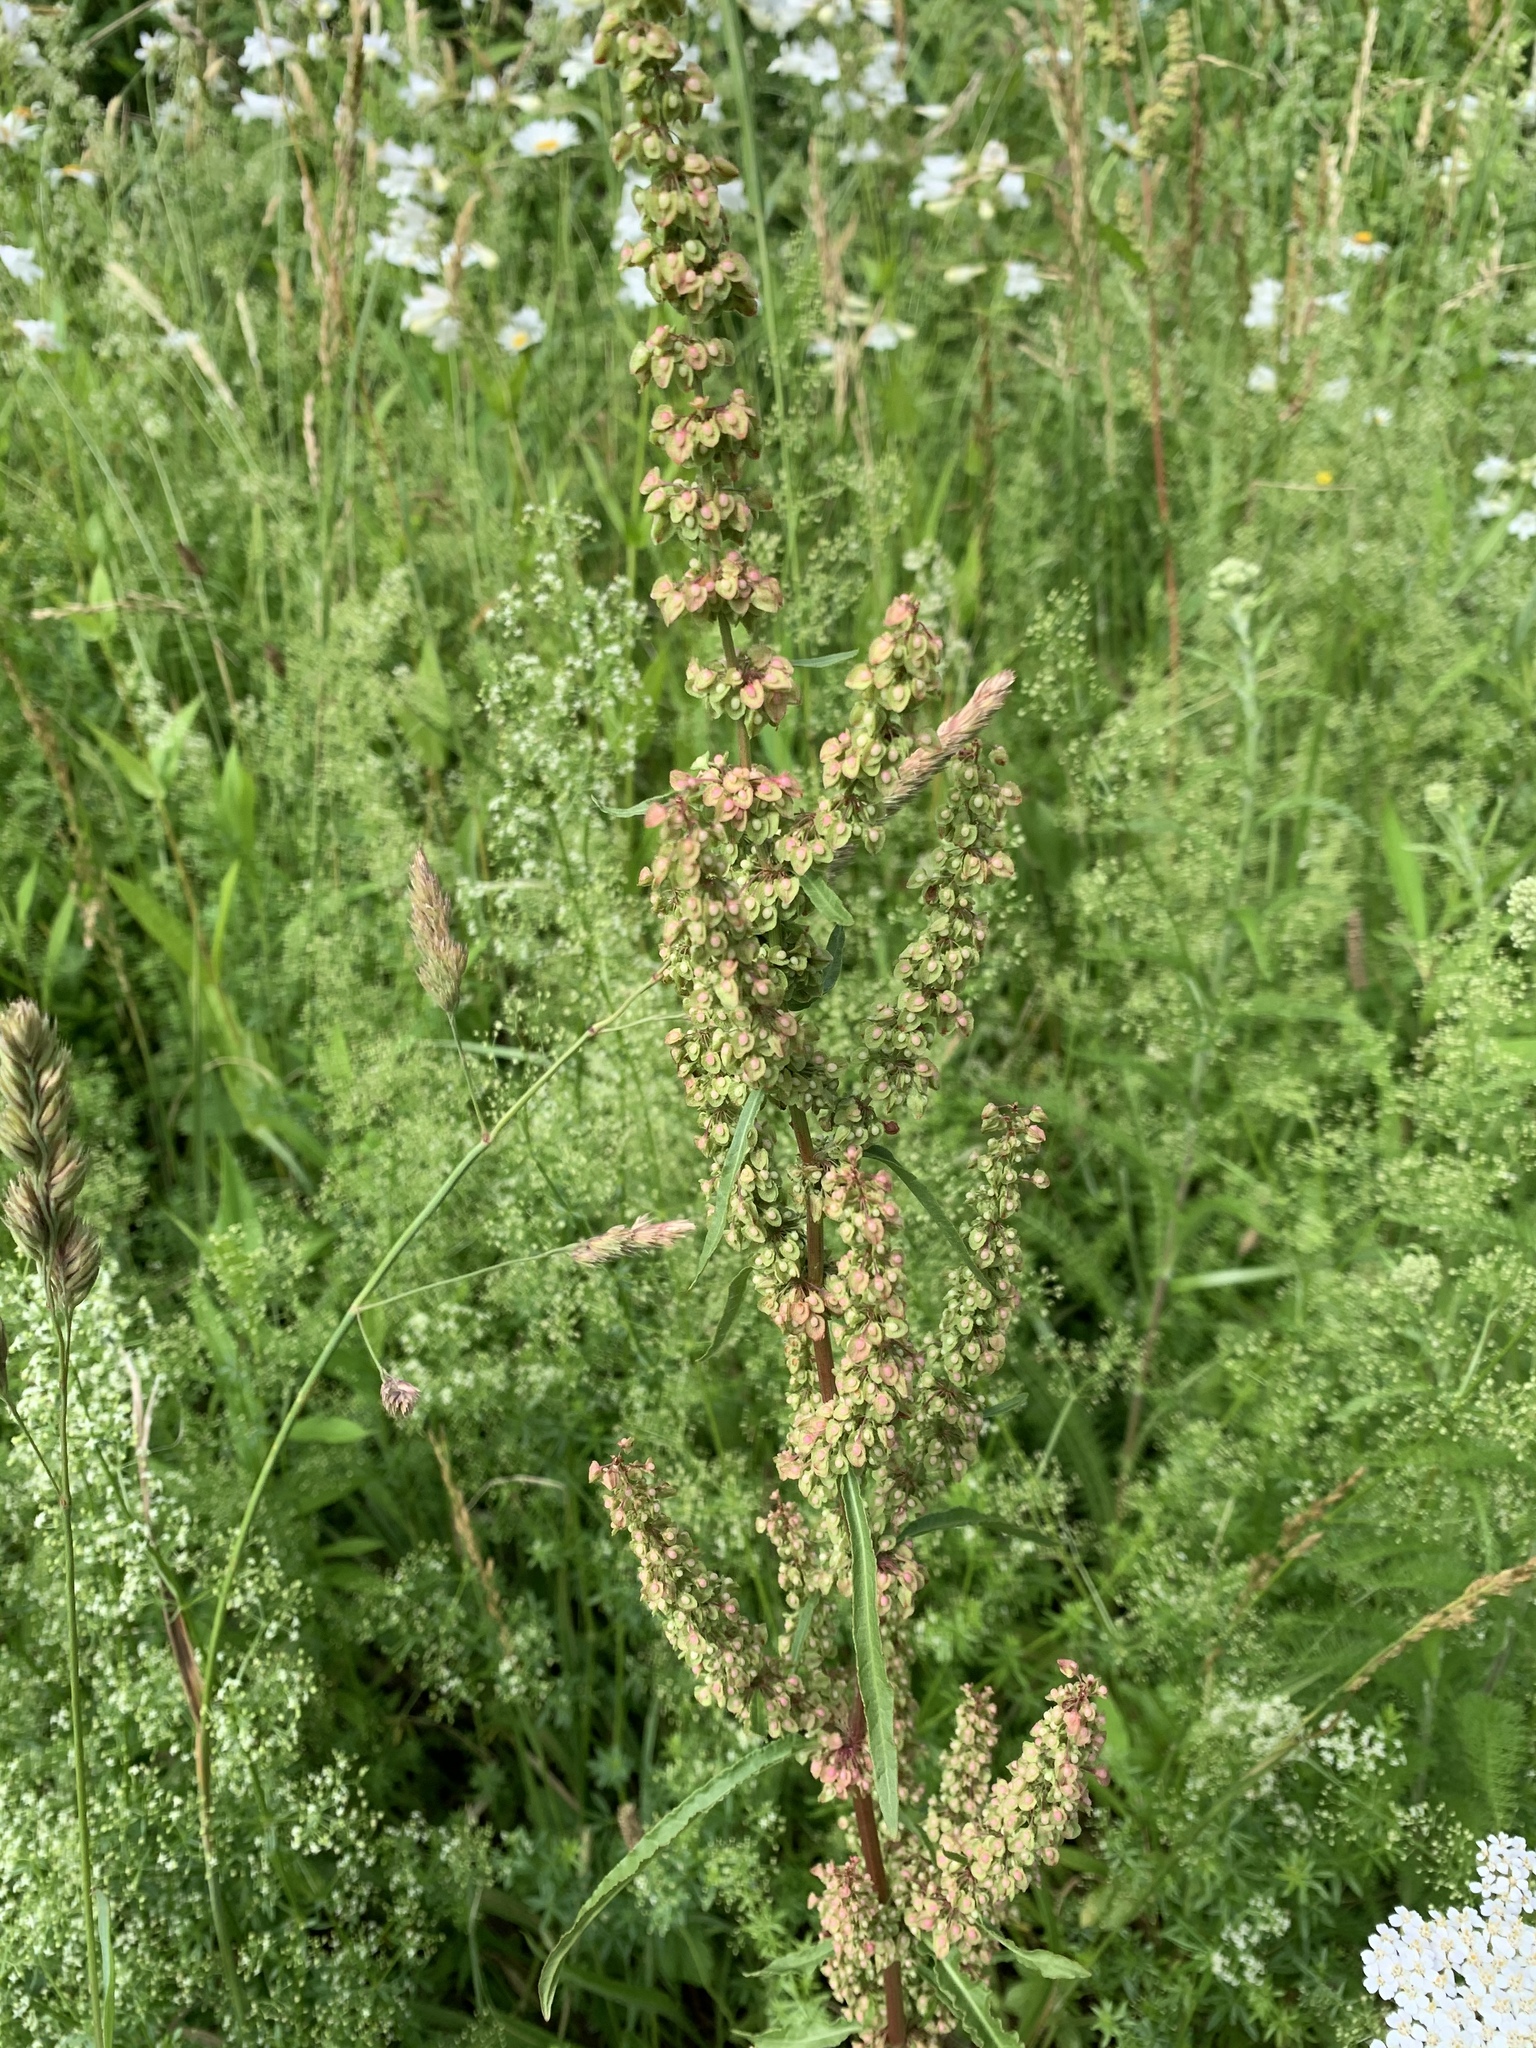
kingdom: Plantae
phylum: Tracheophyta
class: Magnoliopsida
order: Caryophyllales
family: Polygonaceae
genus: Rumex
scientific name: Rumex crispus
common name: Curled dock
